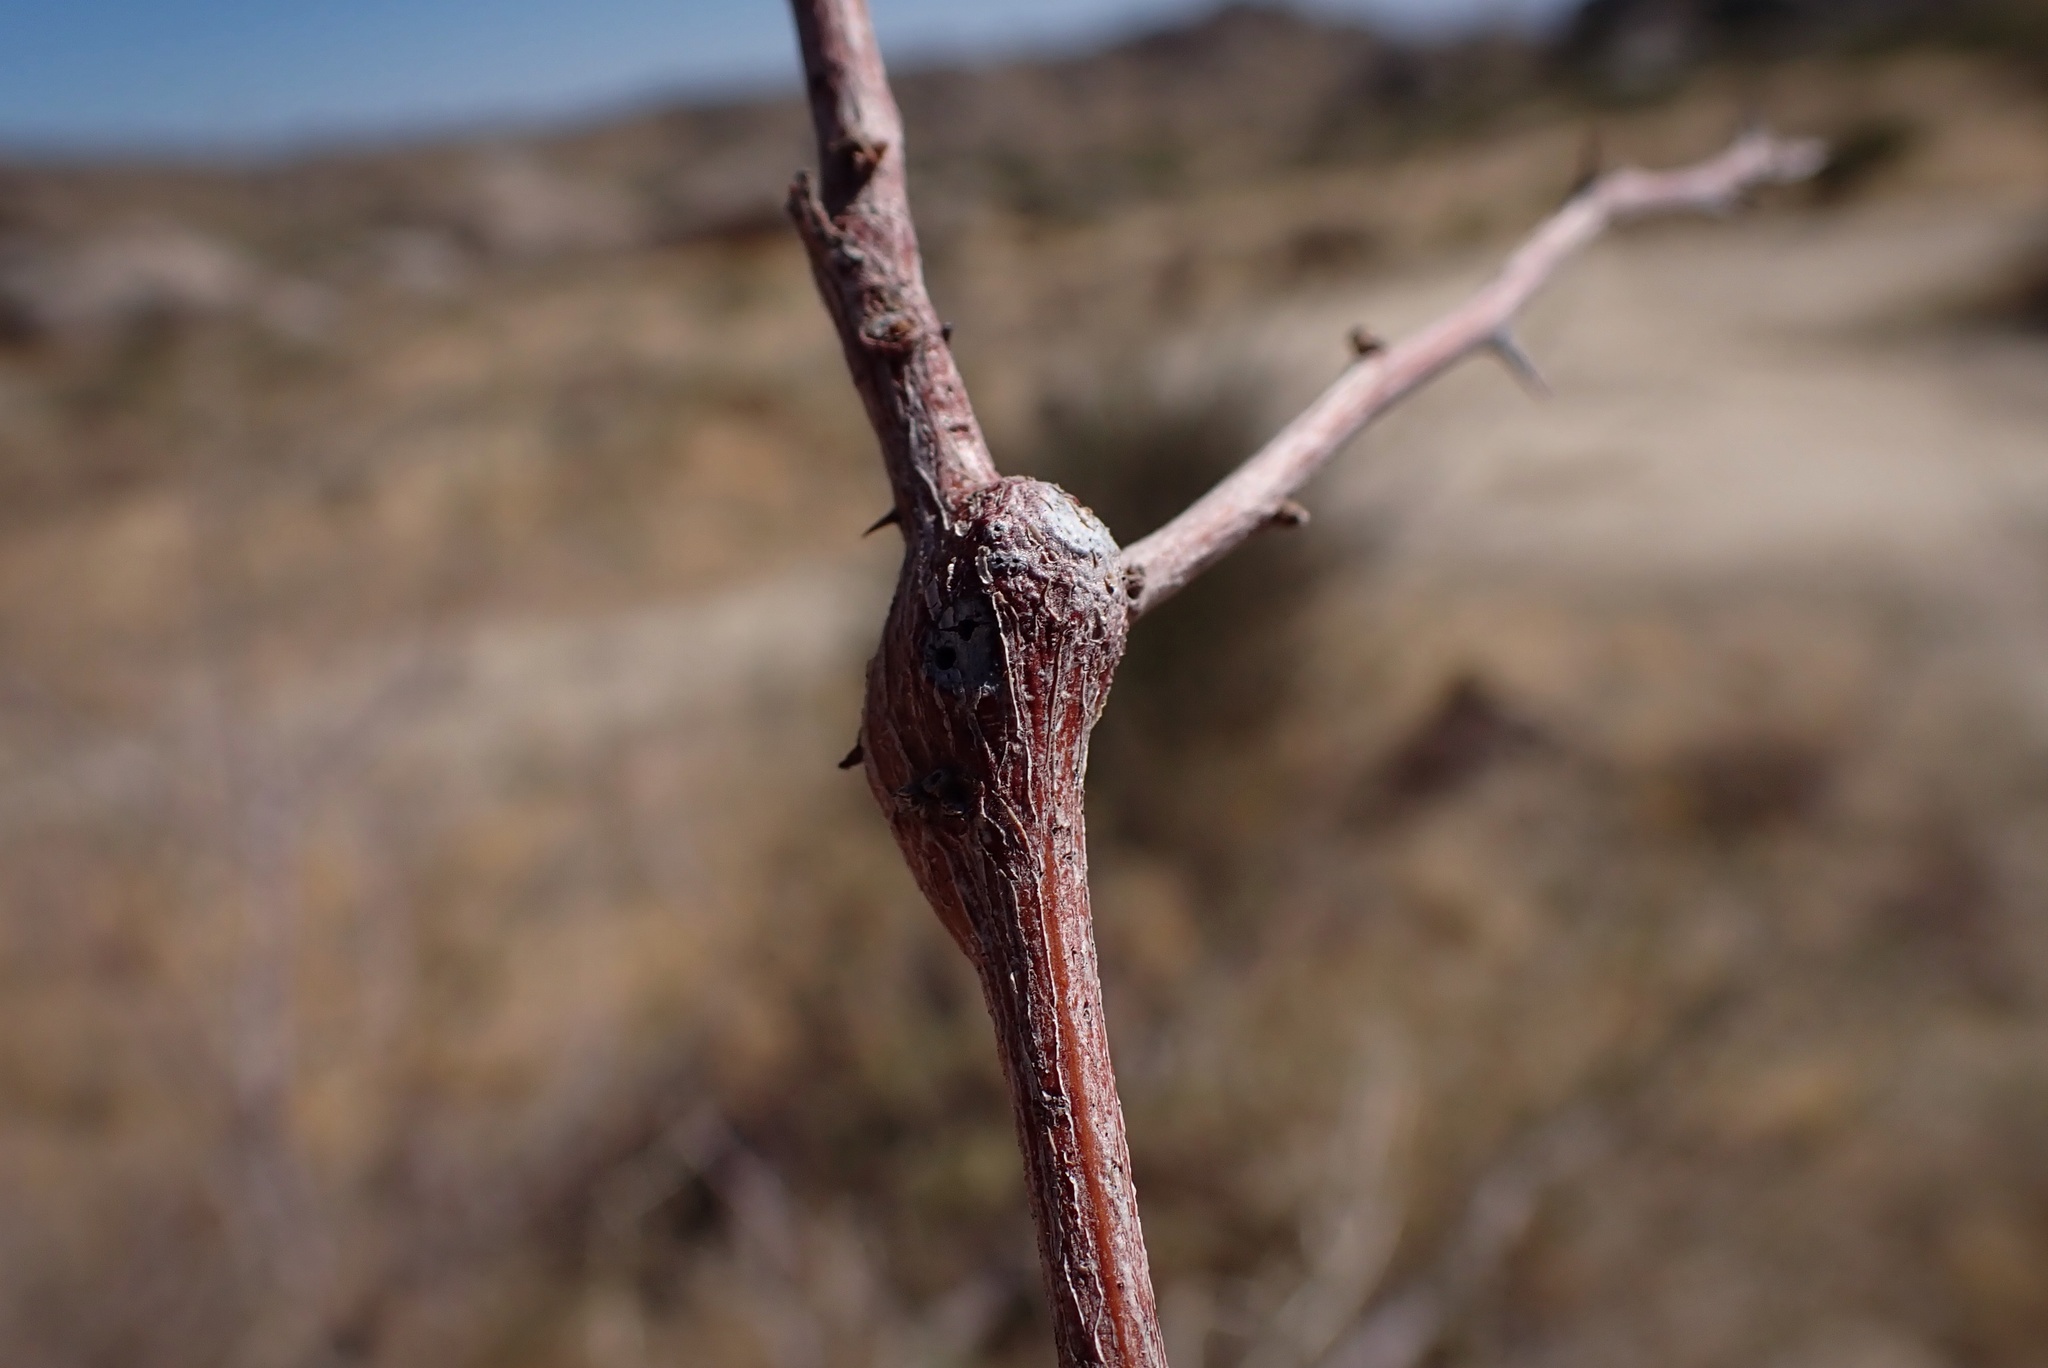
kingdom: Animalia
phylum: Arthropoda
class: Insecta
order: Hymenoptera
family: Tanaostigmatidae
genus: Tanaostigmodes
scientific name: Tanaostigmodes howardii
